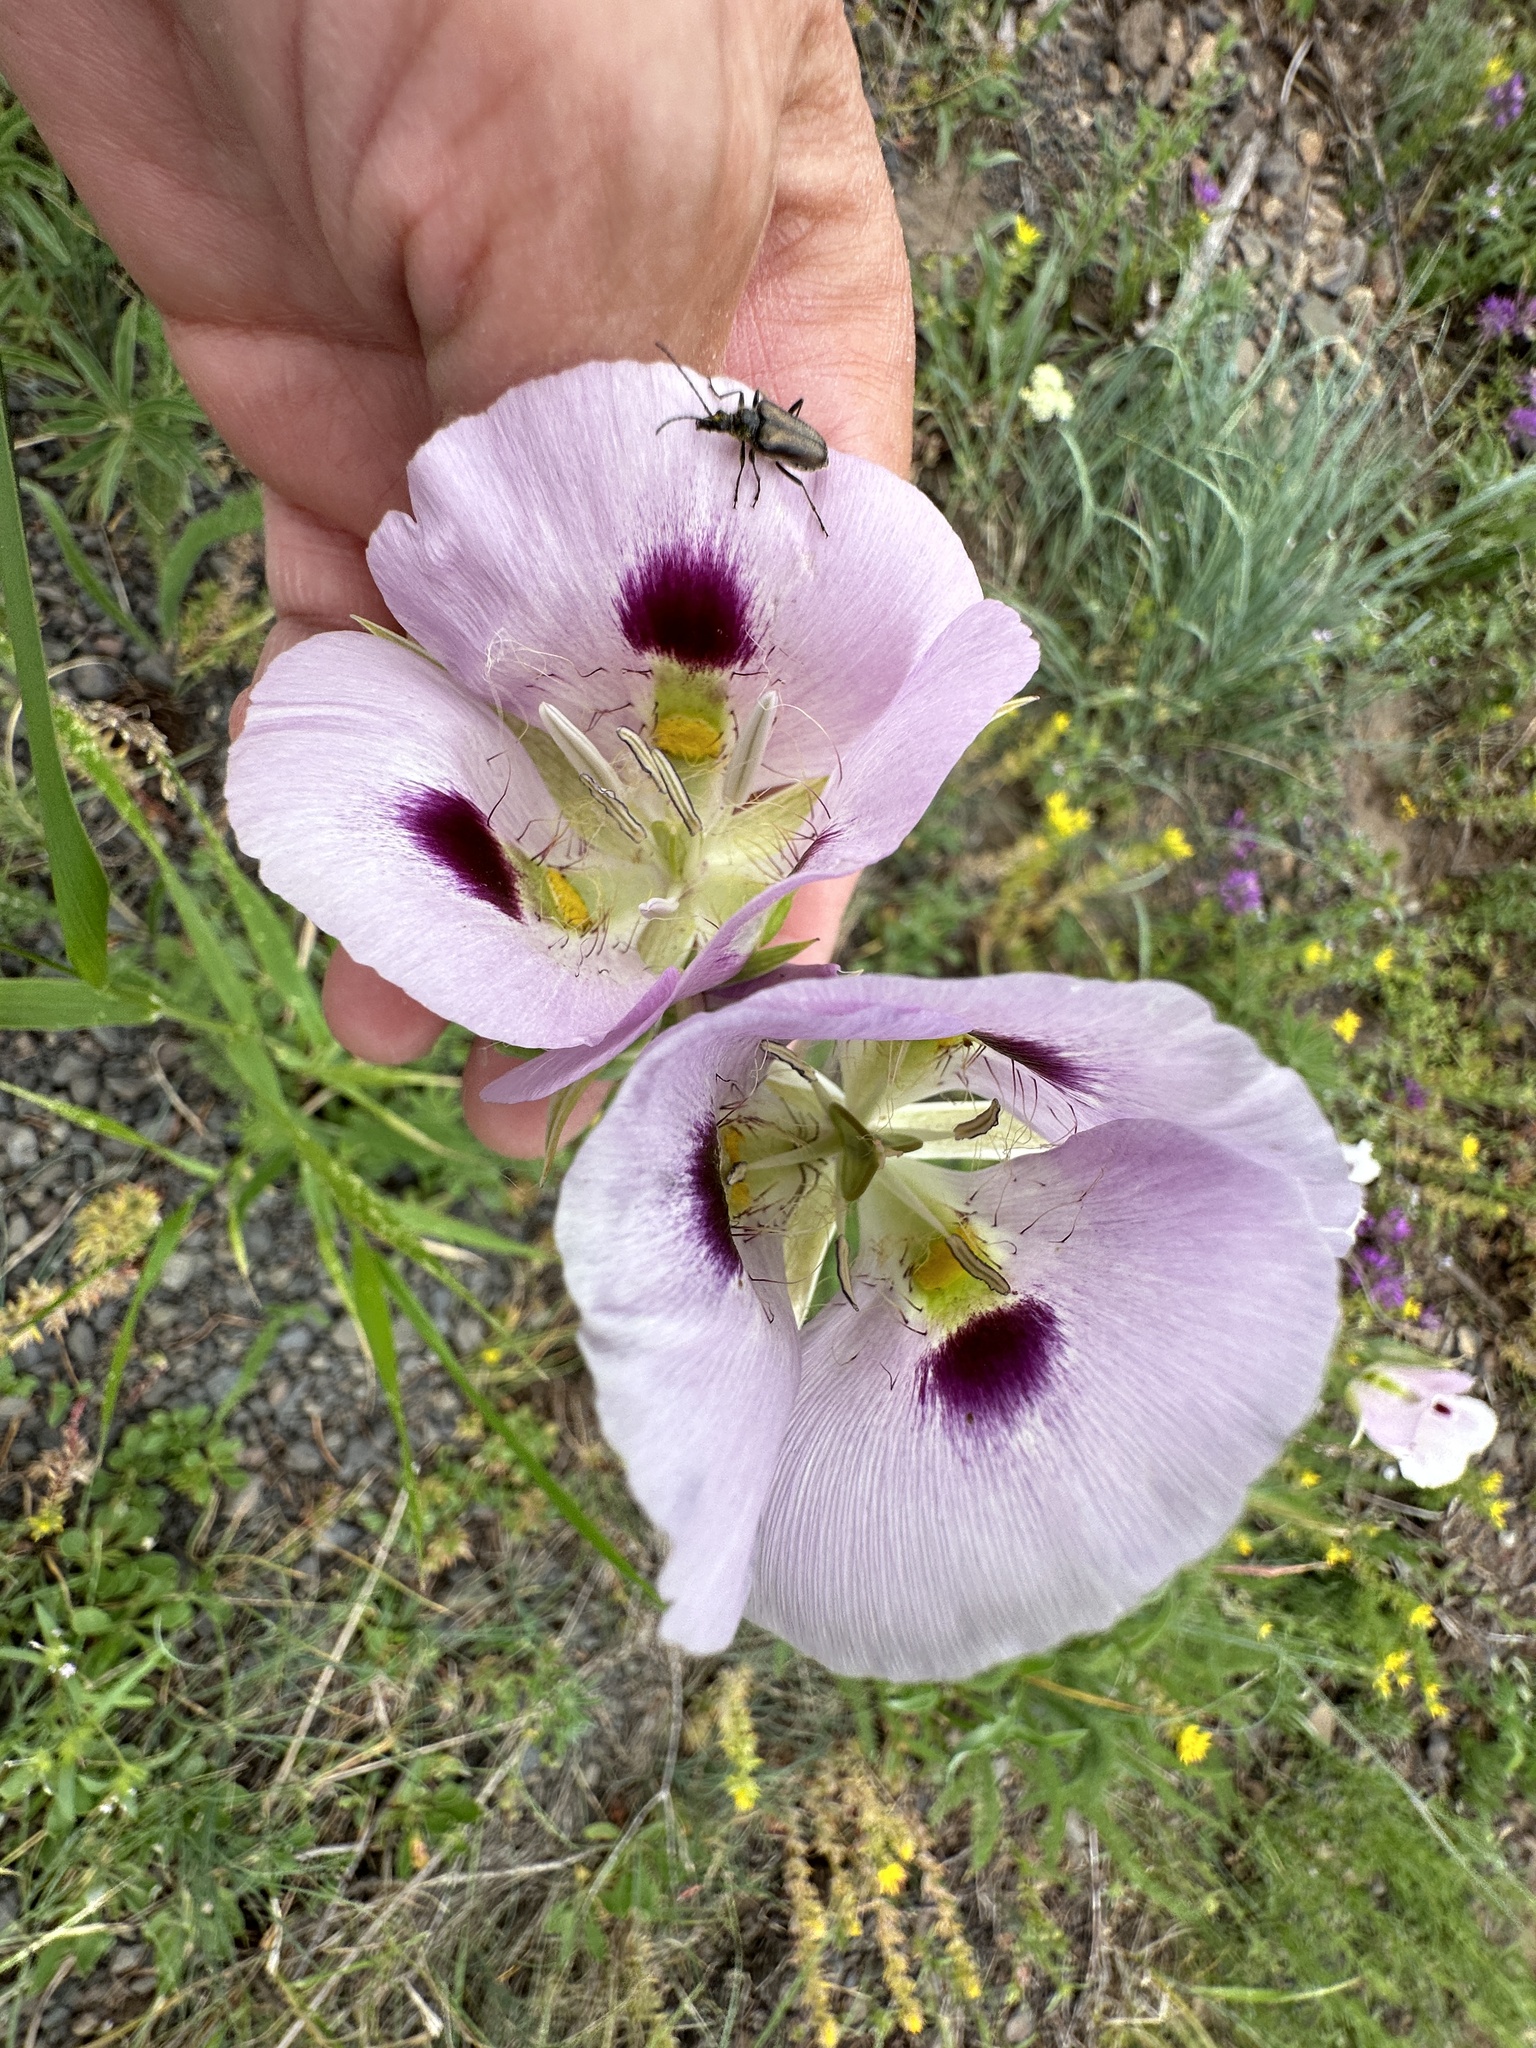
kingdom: Plantae
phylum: Tracheophyta
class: Liliopsida
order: Liliales
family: Liliaceae
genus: Calochortus
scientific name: Calochortus eurycarpus
